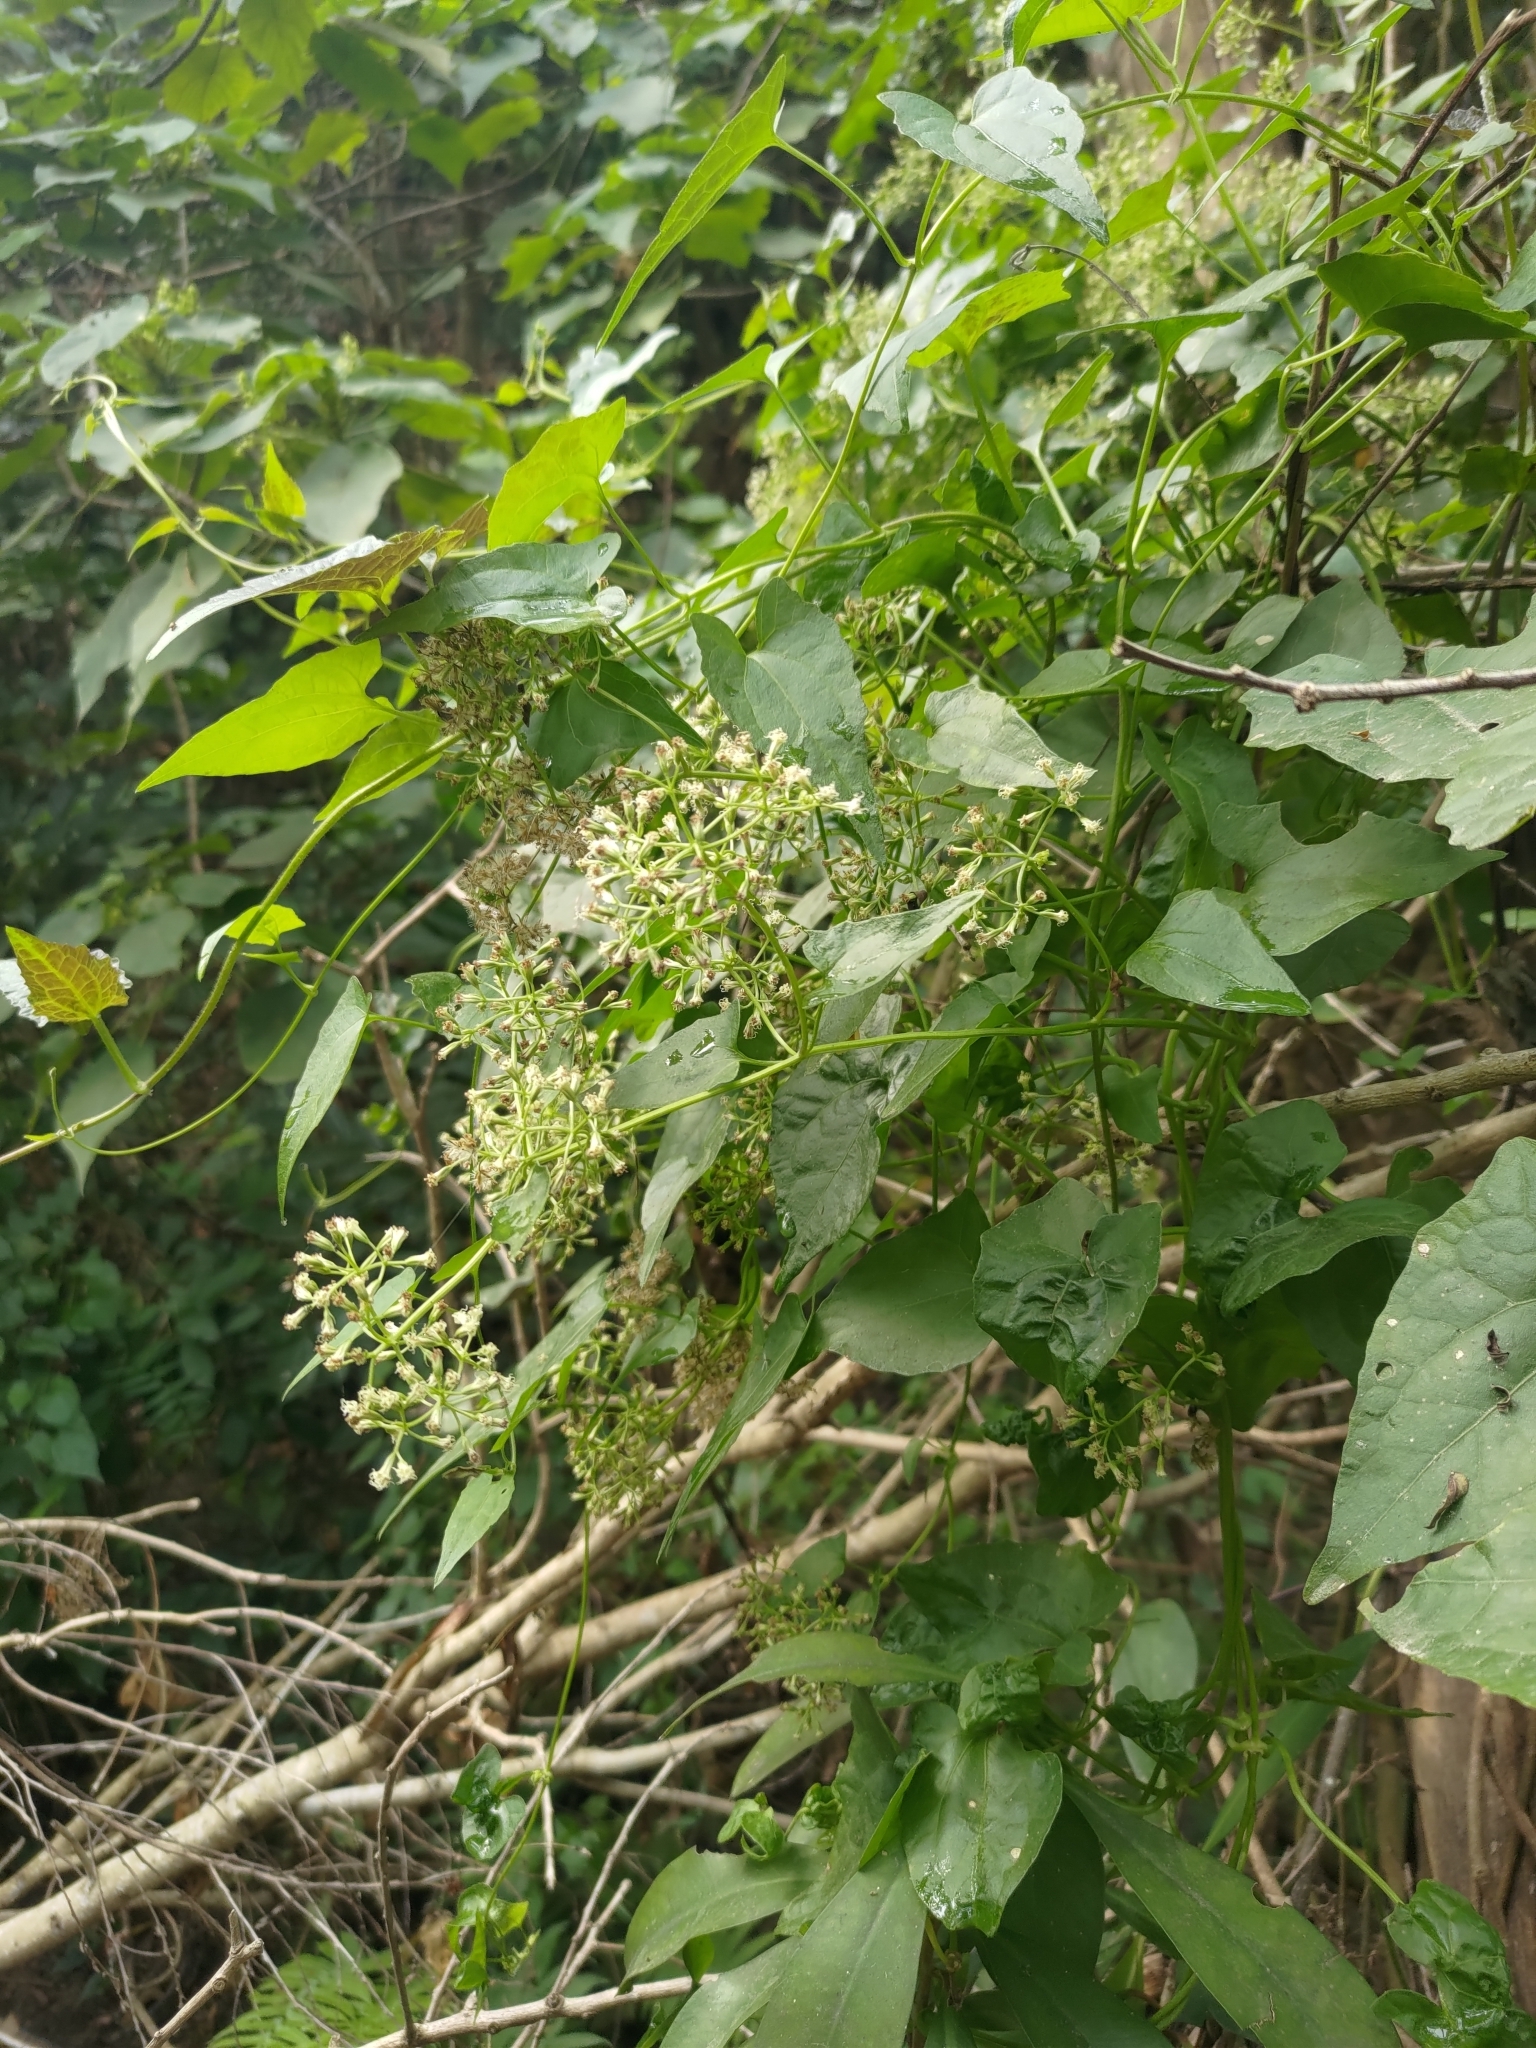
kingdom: Plantae
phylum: Tracheophyta
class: Magnoliopsida
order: Asterales
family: Asteraceae
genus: Mikania
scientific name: Mikania micrantha
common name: Mile-a-minute
